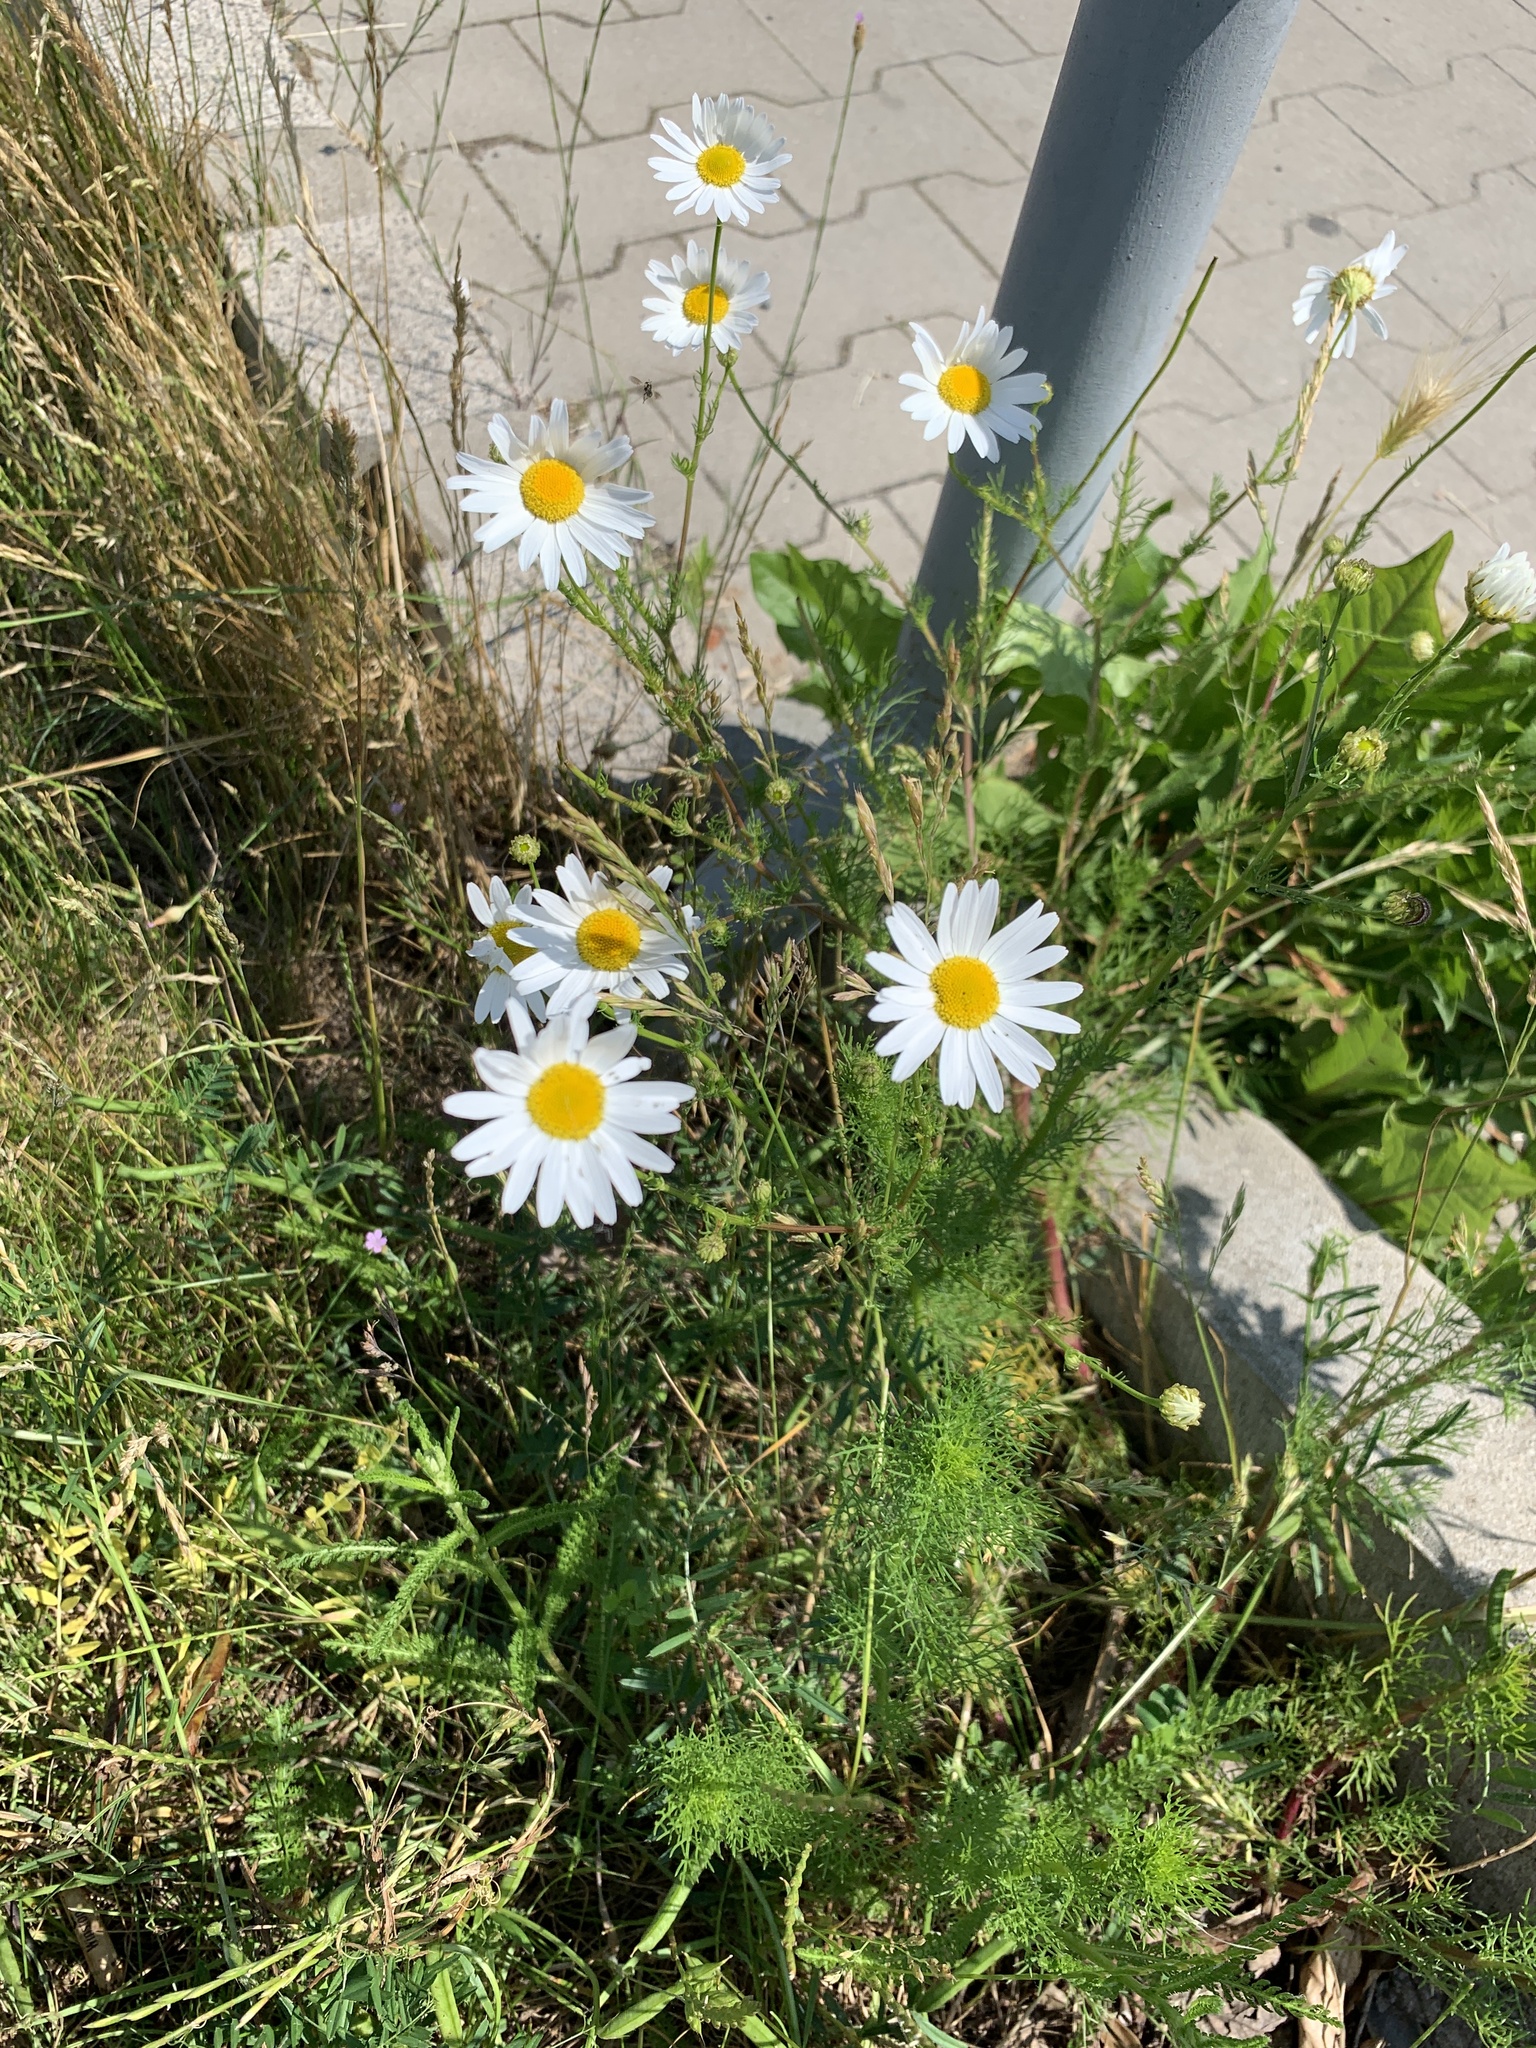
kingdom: Plantae
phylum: Tracheophyta
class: Magnoliopsida
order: Asterales
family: Asteraceae
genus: Tripleurospermum
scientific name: Tripleurospermum inodorum
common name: Scentless mayweed
